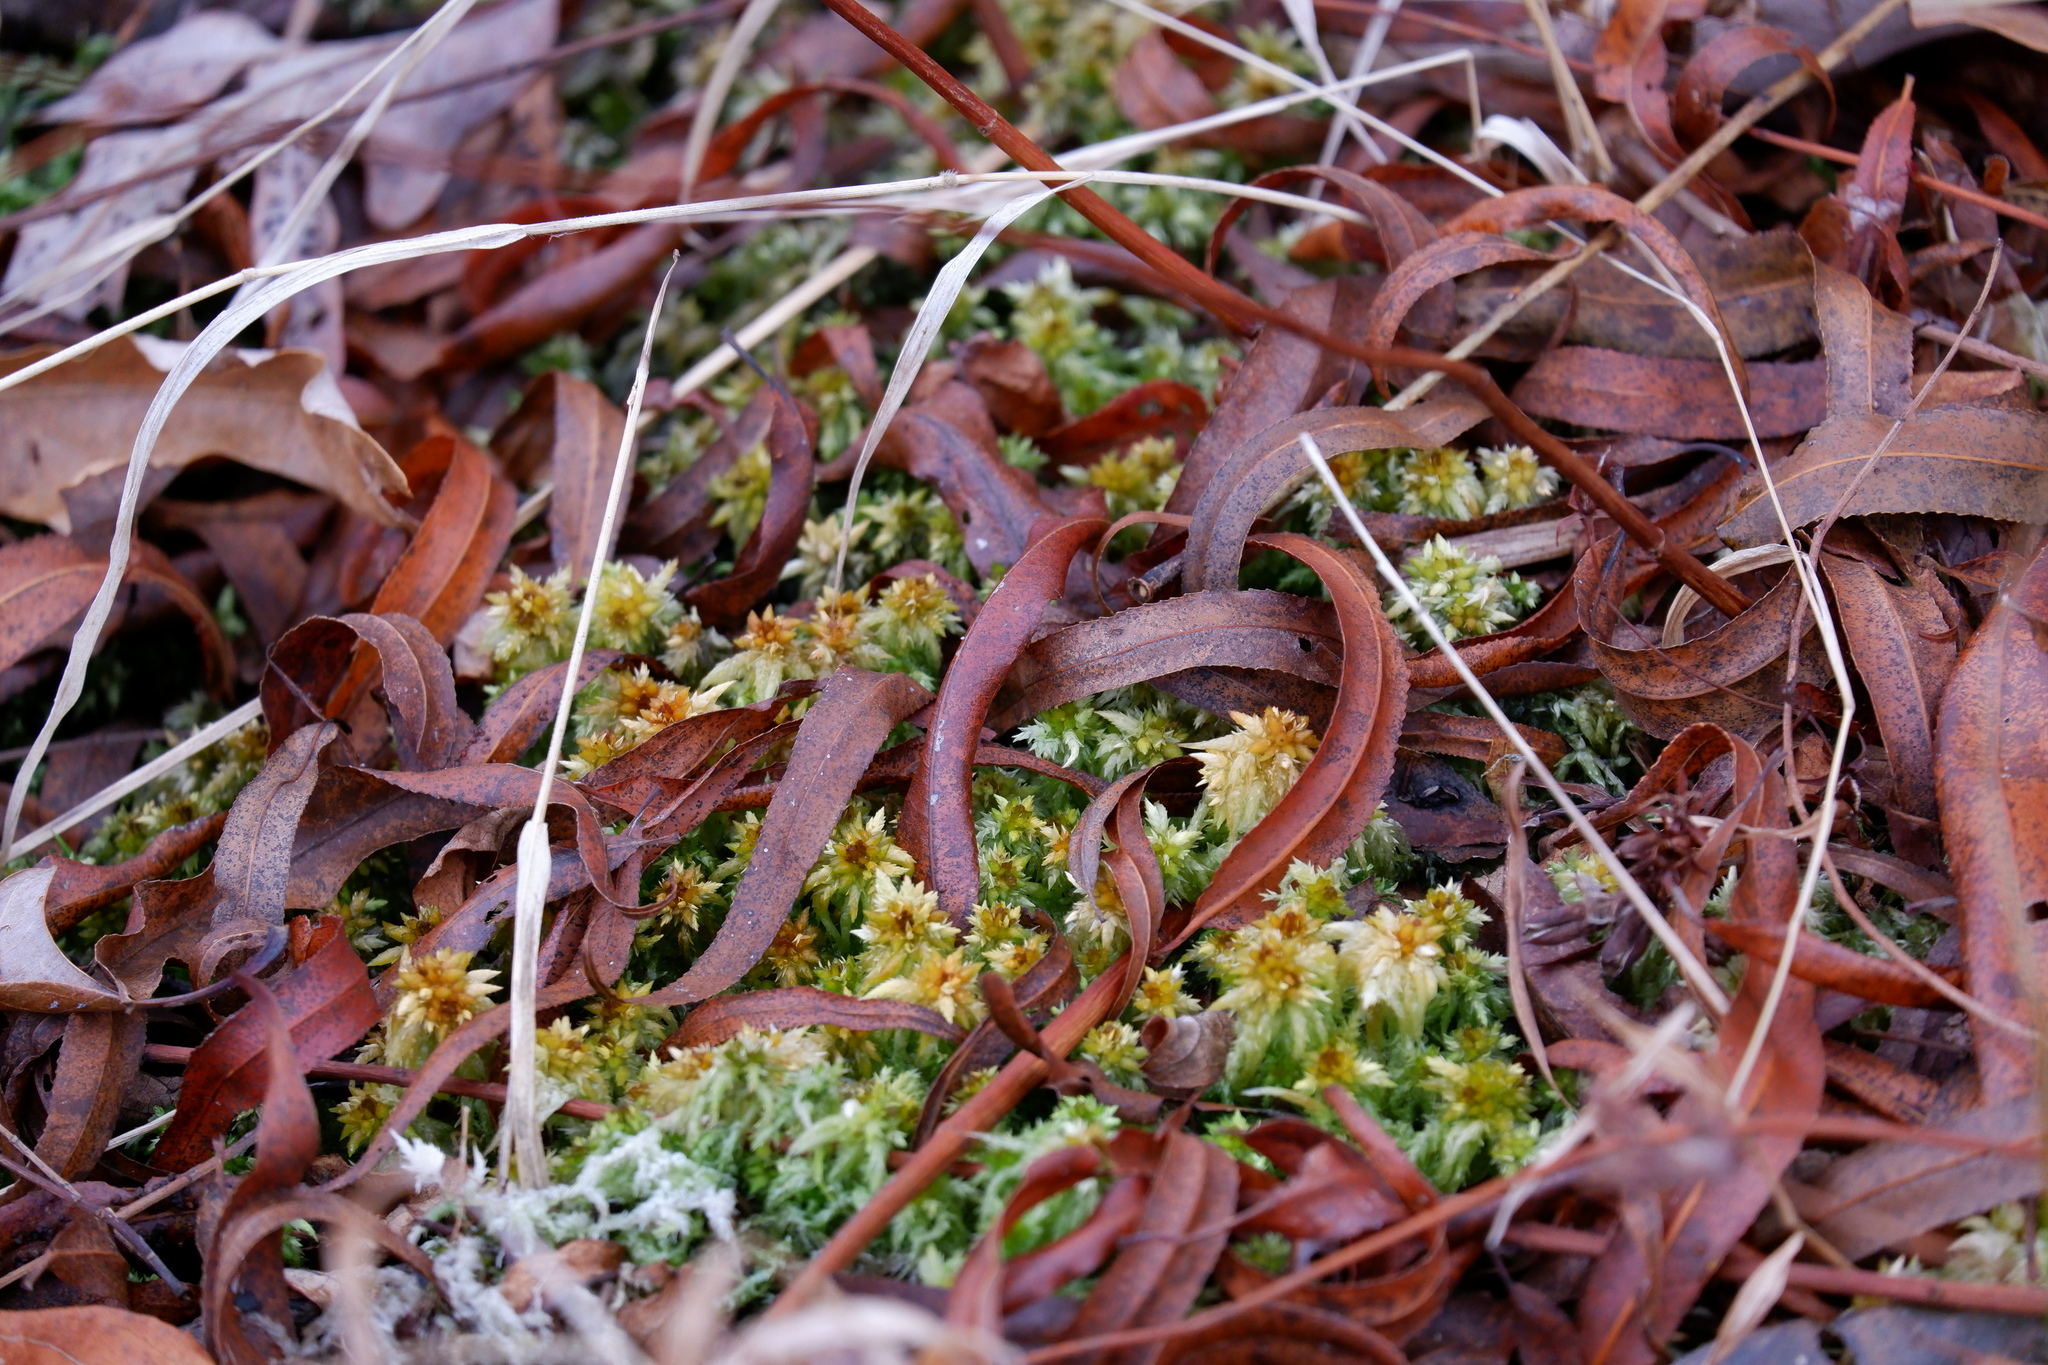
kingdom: Plantae
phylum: Bryophyta
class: Sphagnopsida
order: Sphagnales
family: Sphagnaceae
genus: Sphagnum
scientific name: Sphagnum perichaetiale
